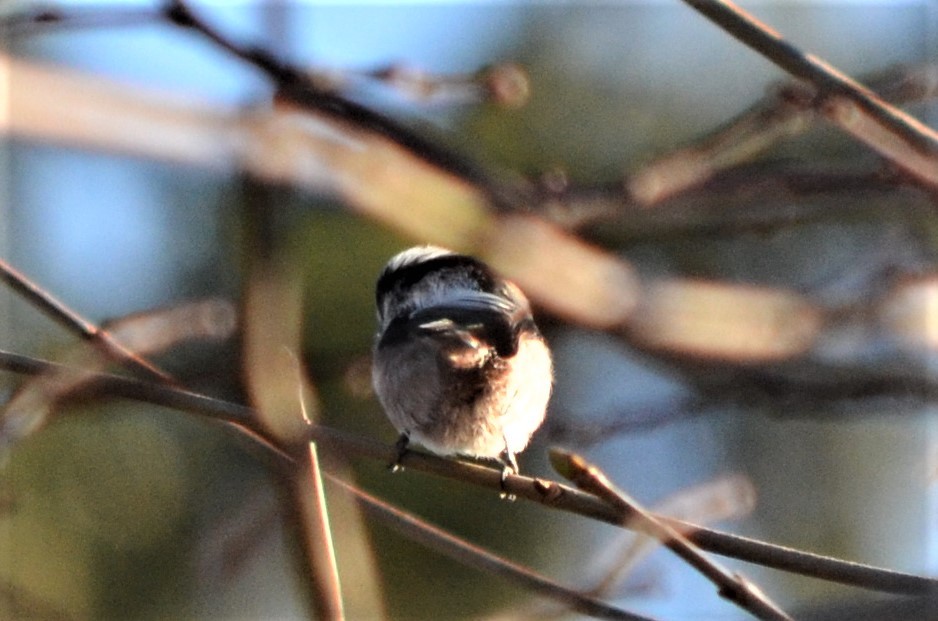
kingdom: Animalia
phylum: Chordata
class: Aves
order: Passeriformes
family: Aegithalidae
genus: Aegithalos
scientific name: Aegithalos caudatus
